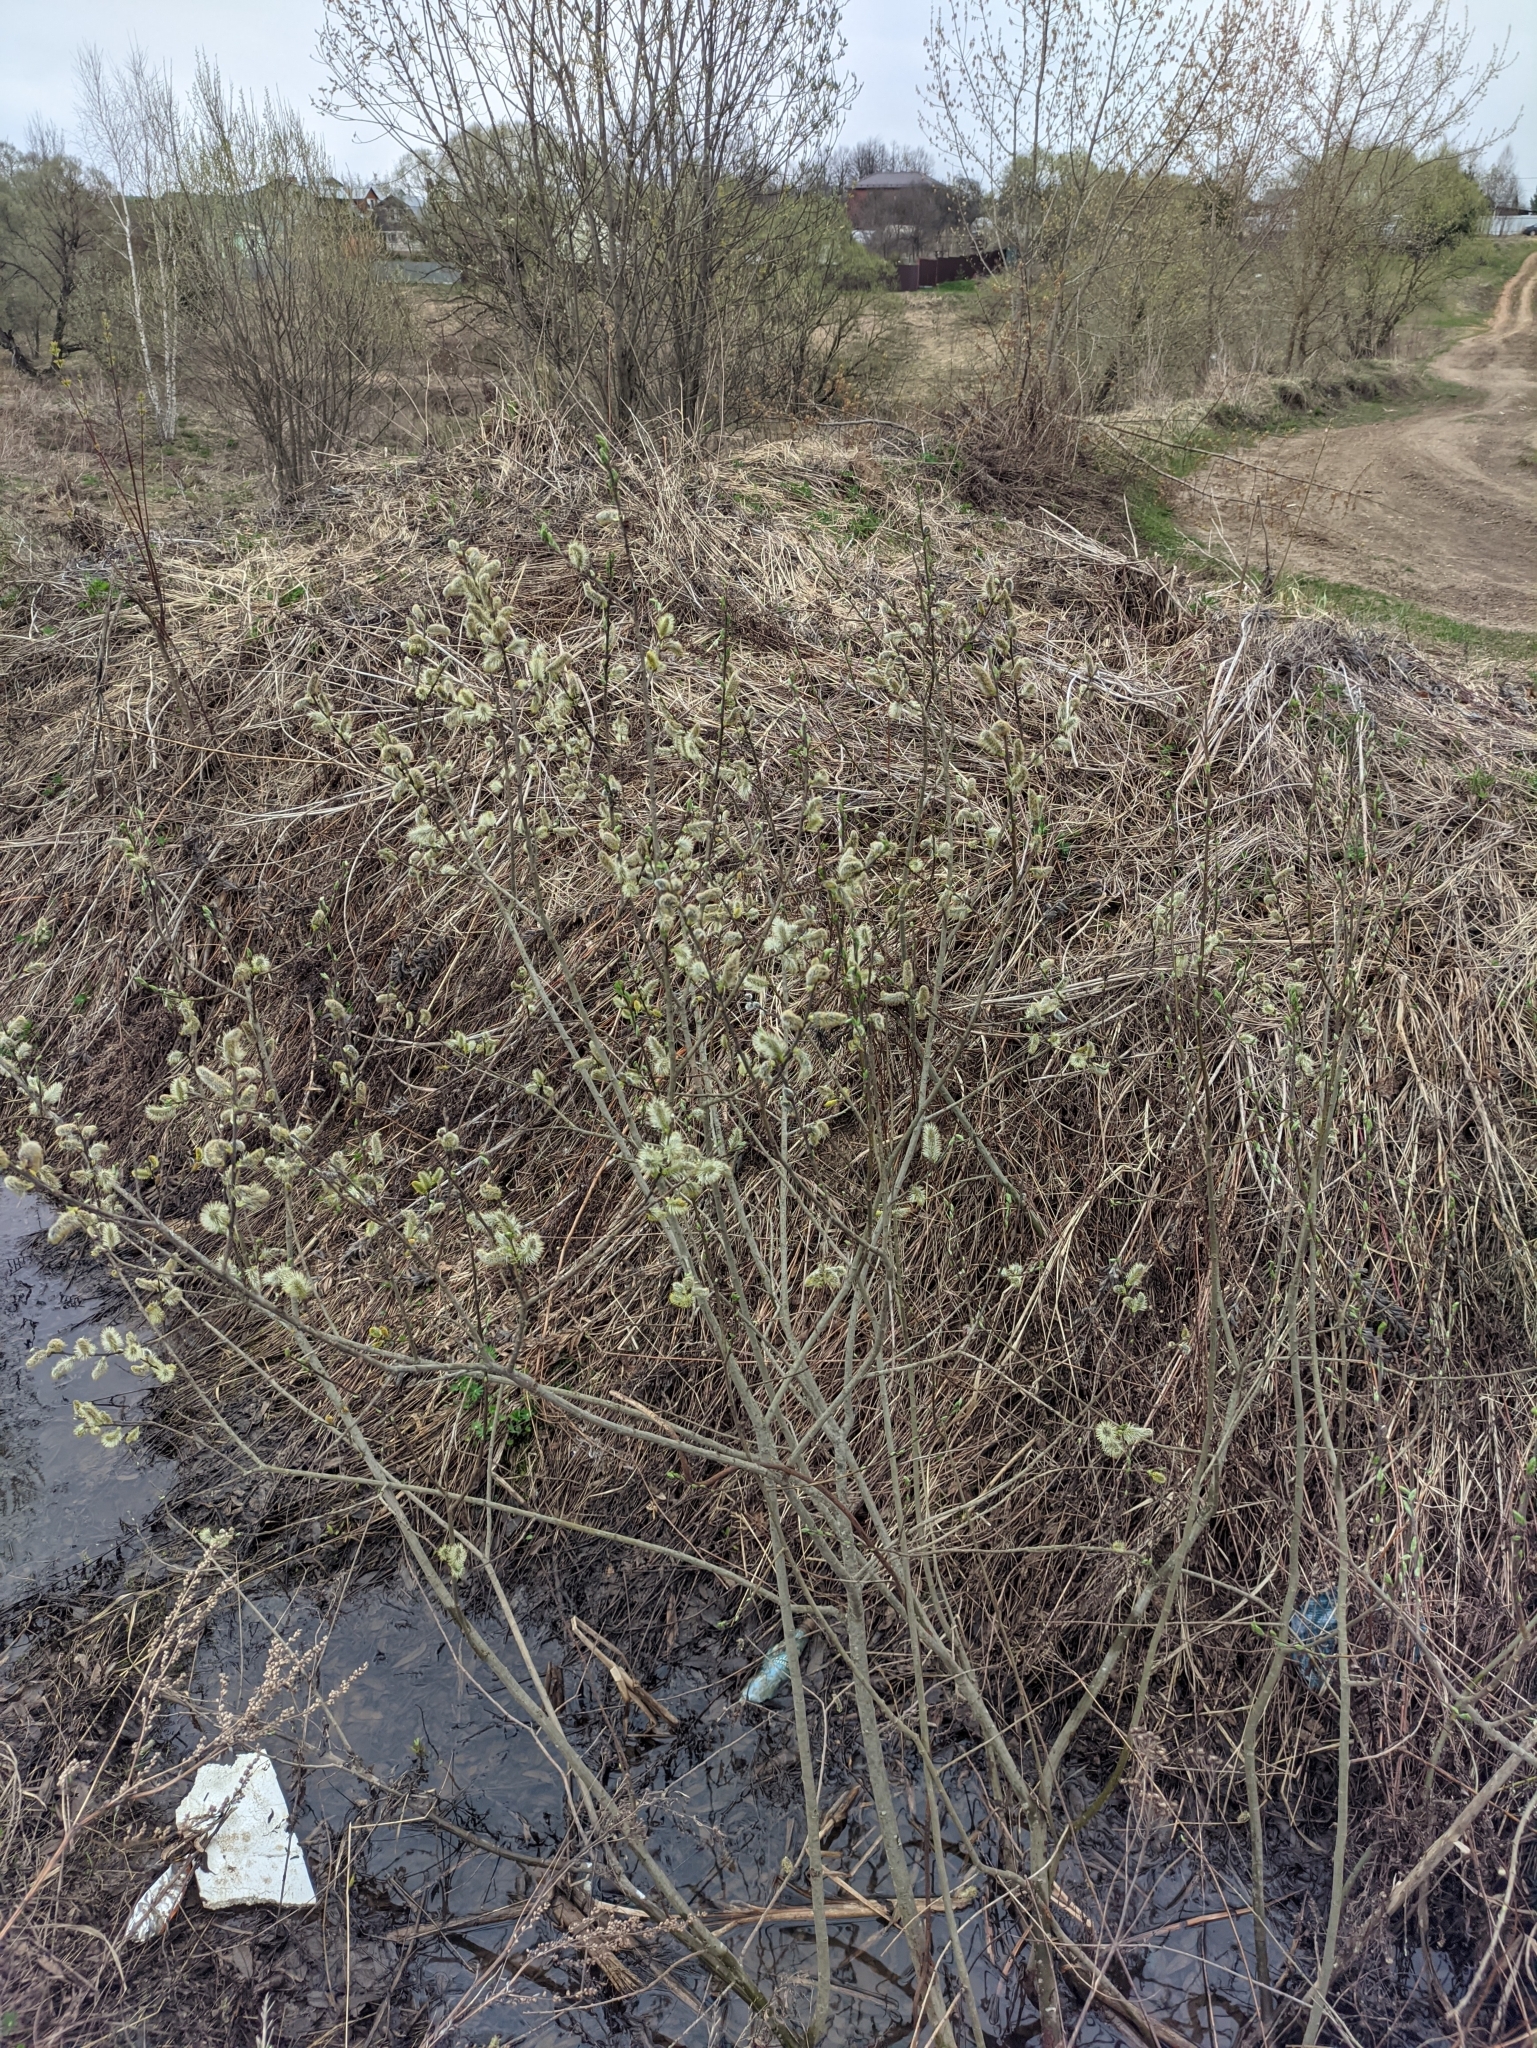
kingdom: Plantae
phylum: Tracheophyta
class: Magnoliopsida
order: Malpighiales
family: Salicaceae
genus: Salix
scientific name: Salix cinerea
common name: Common sallow
